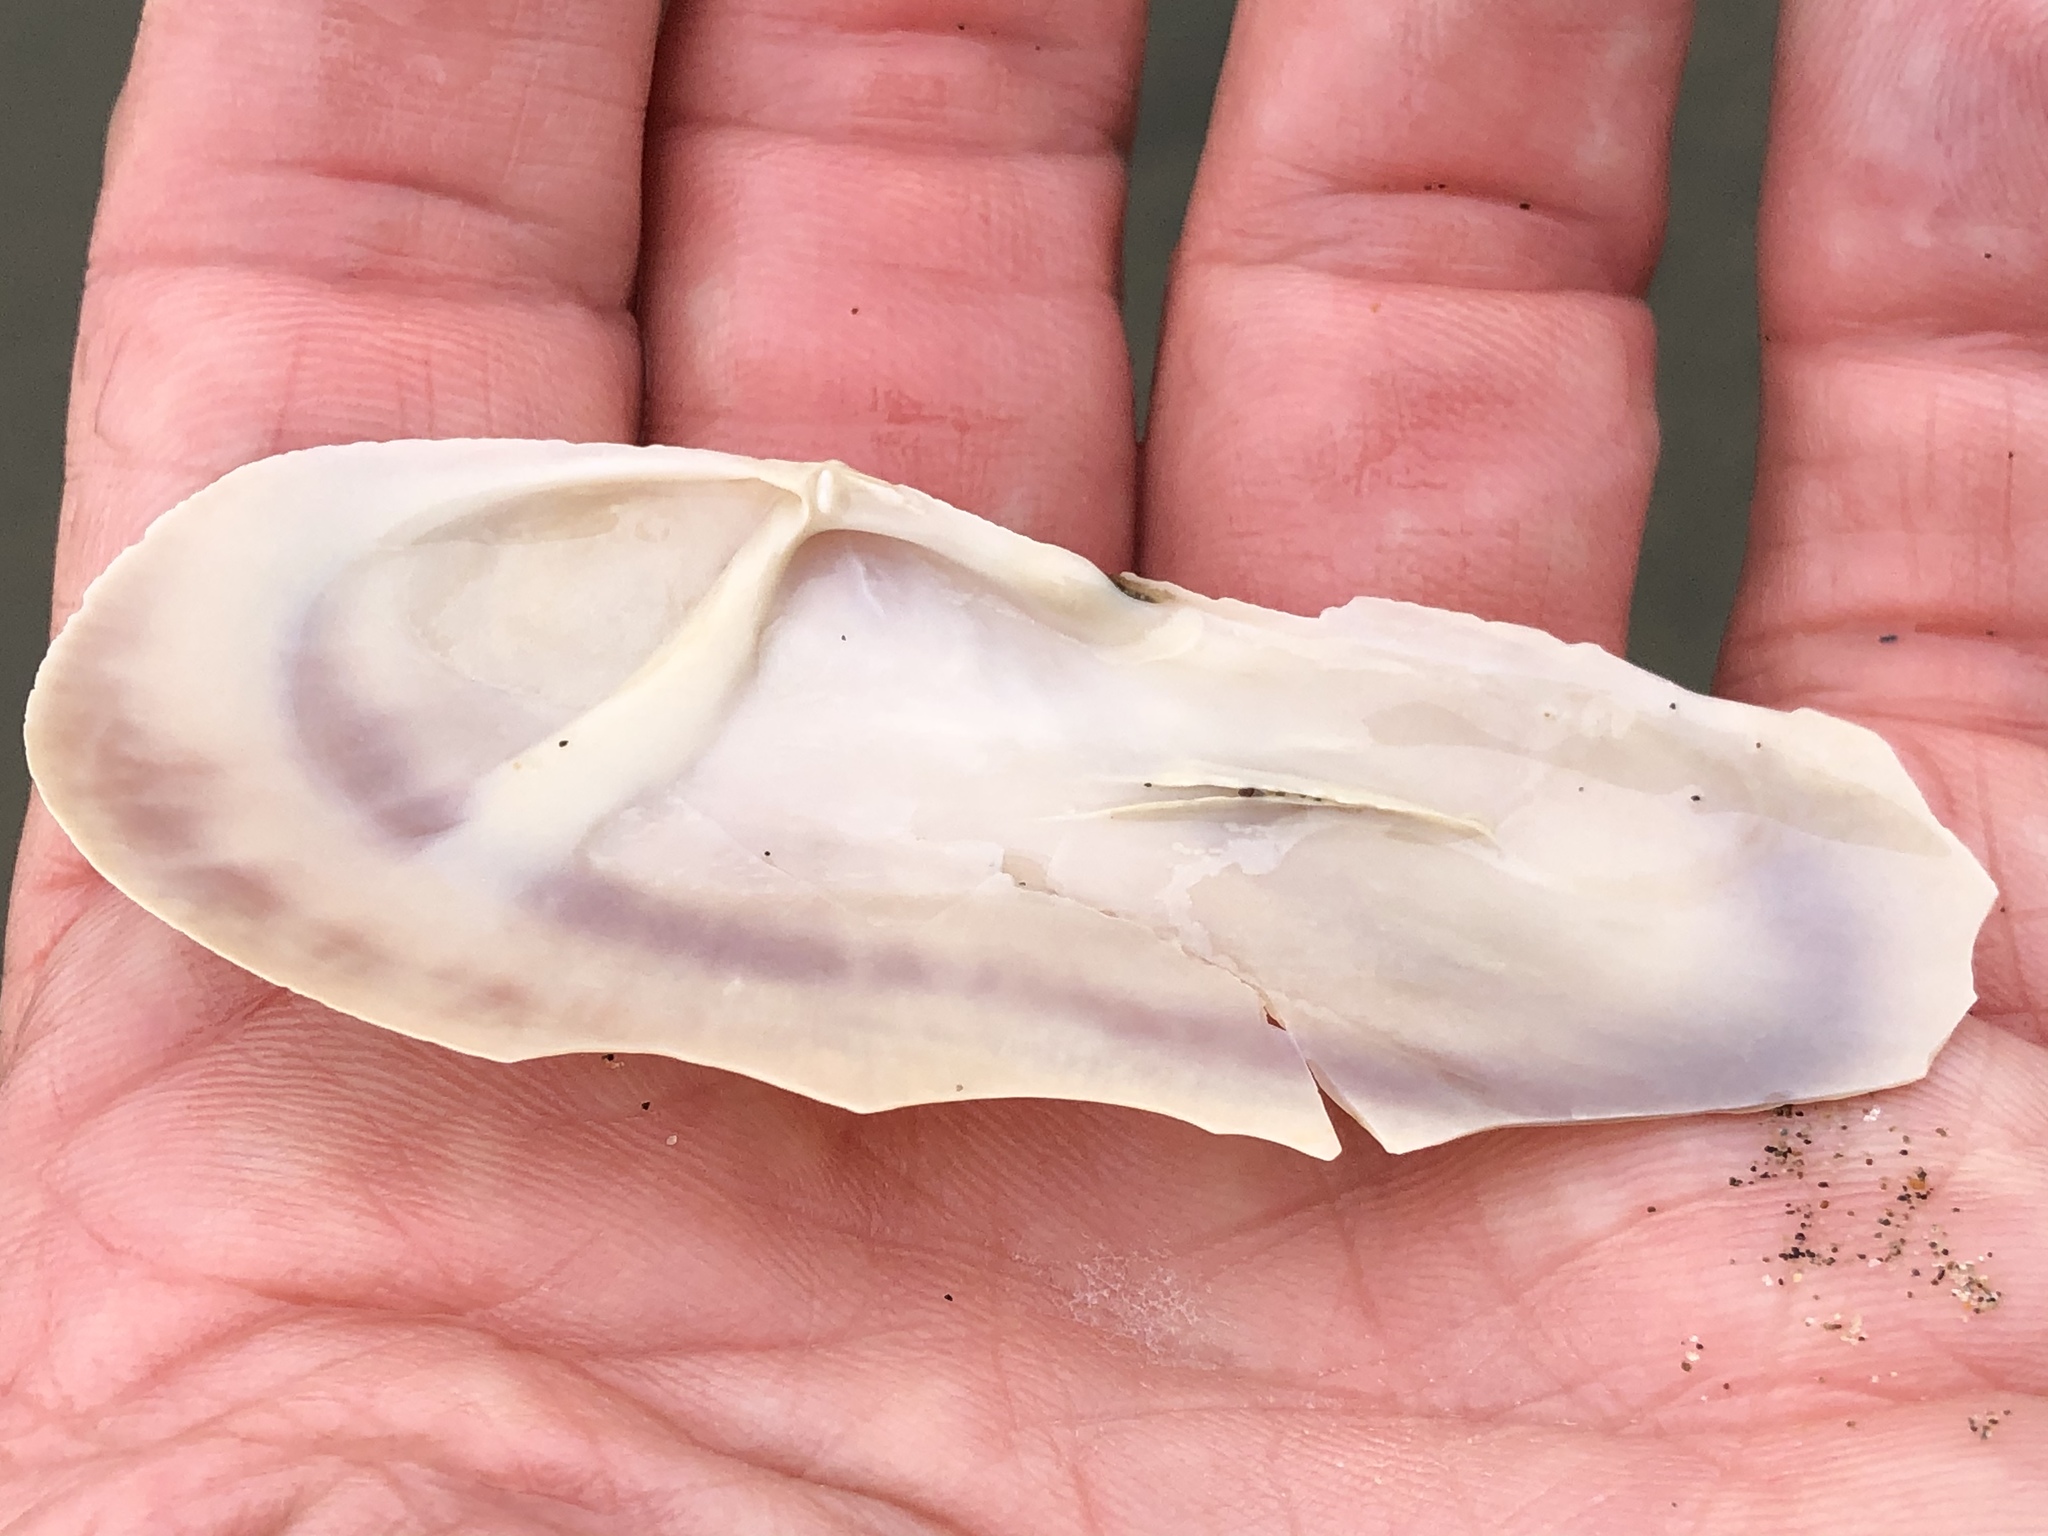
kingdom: Animalia
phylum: Mollusca
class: Bivalvia
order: Adapedonta
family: Pharidae
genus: Siliqua
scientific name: Siliqua patula
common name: Pacific razor clam
